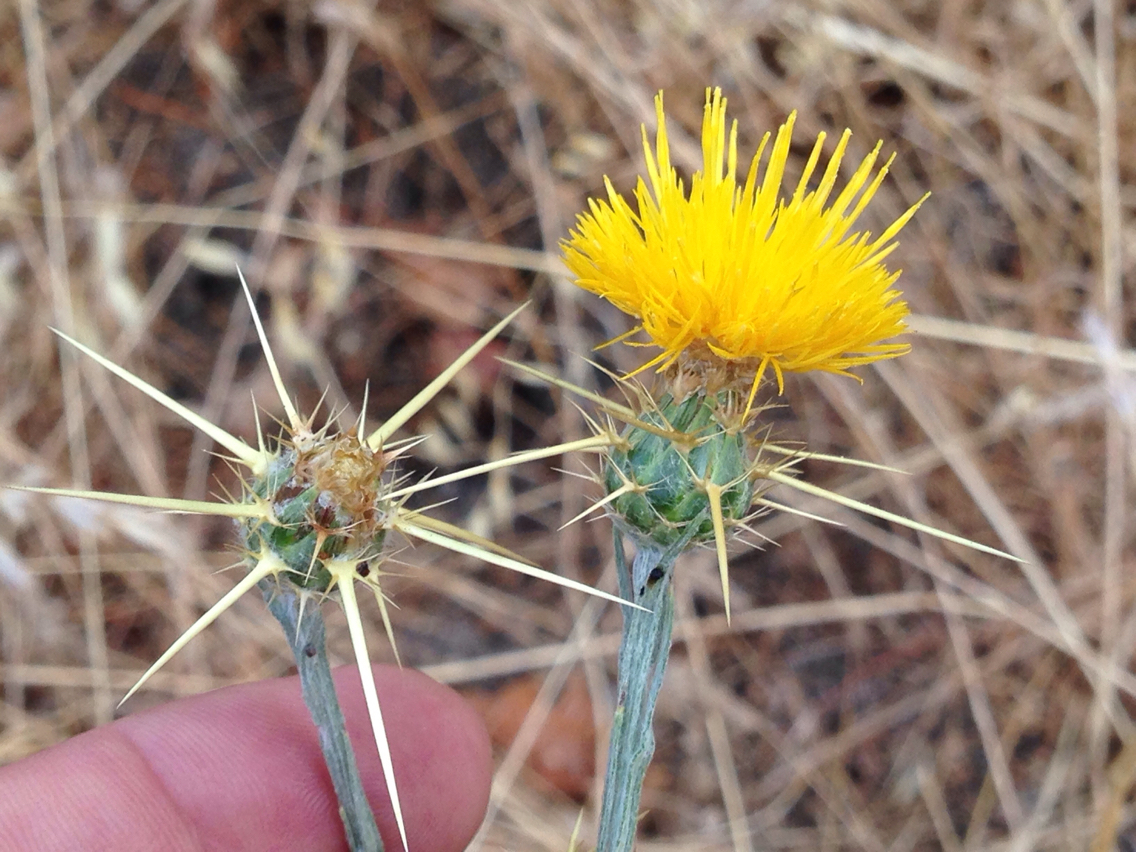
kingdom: Plantae
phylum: Tracheophyta
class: Magnoliopsida
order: Asterales
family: Asteraceae
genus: Centaurea
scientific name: Centaurea solstitialis
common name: Yellow star-thistle
